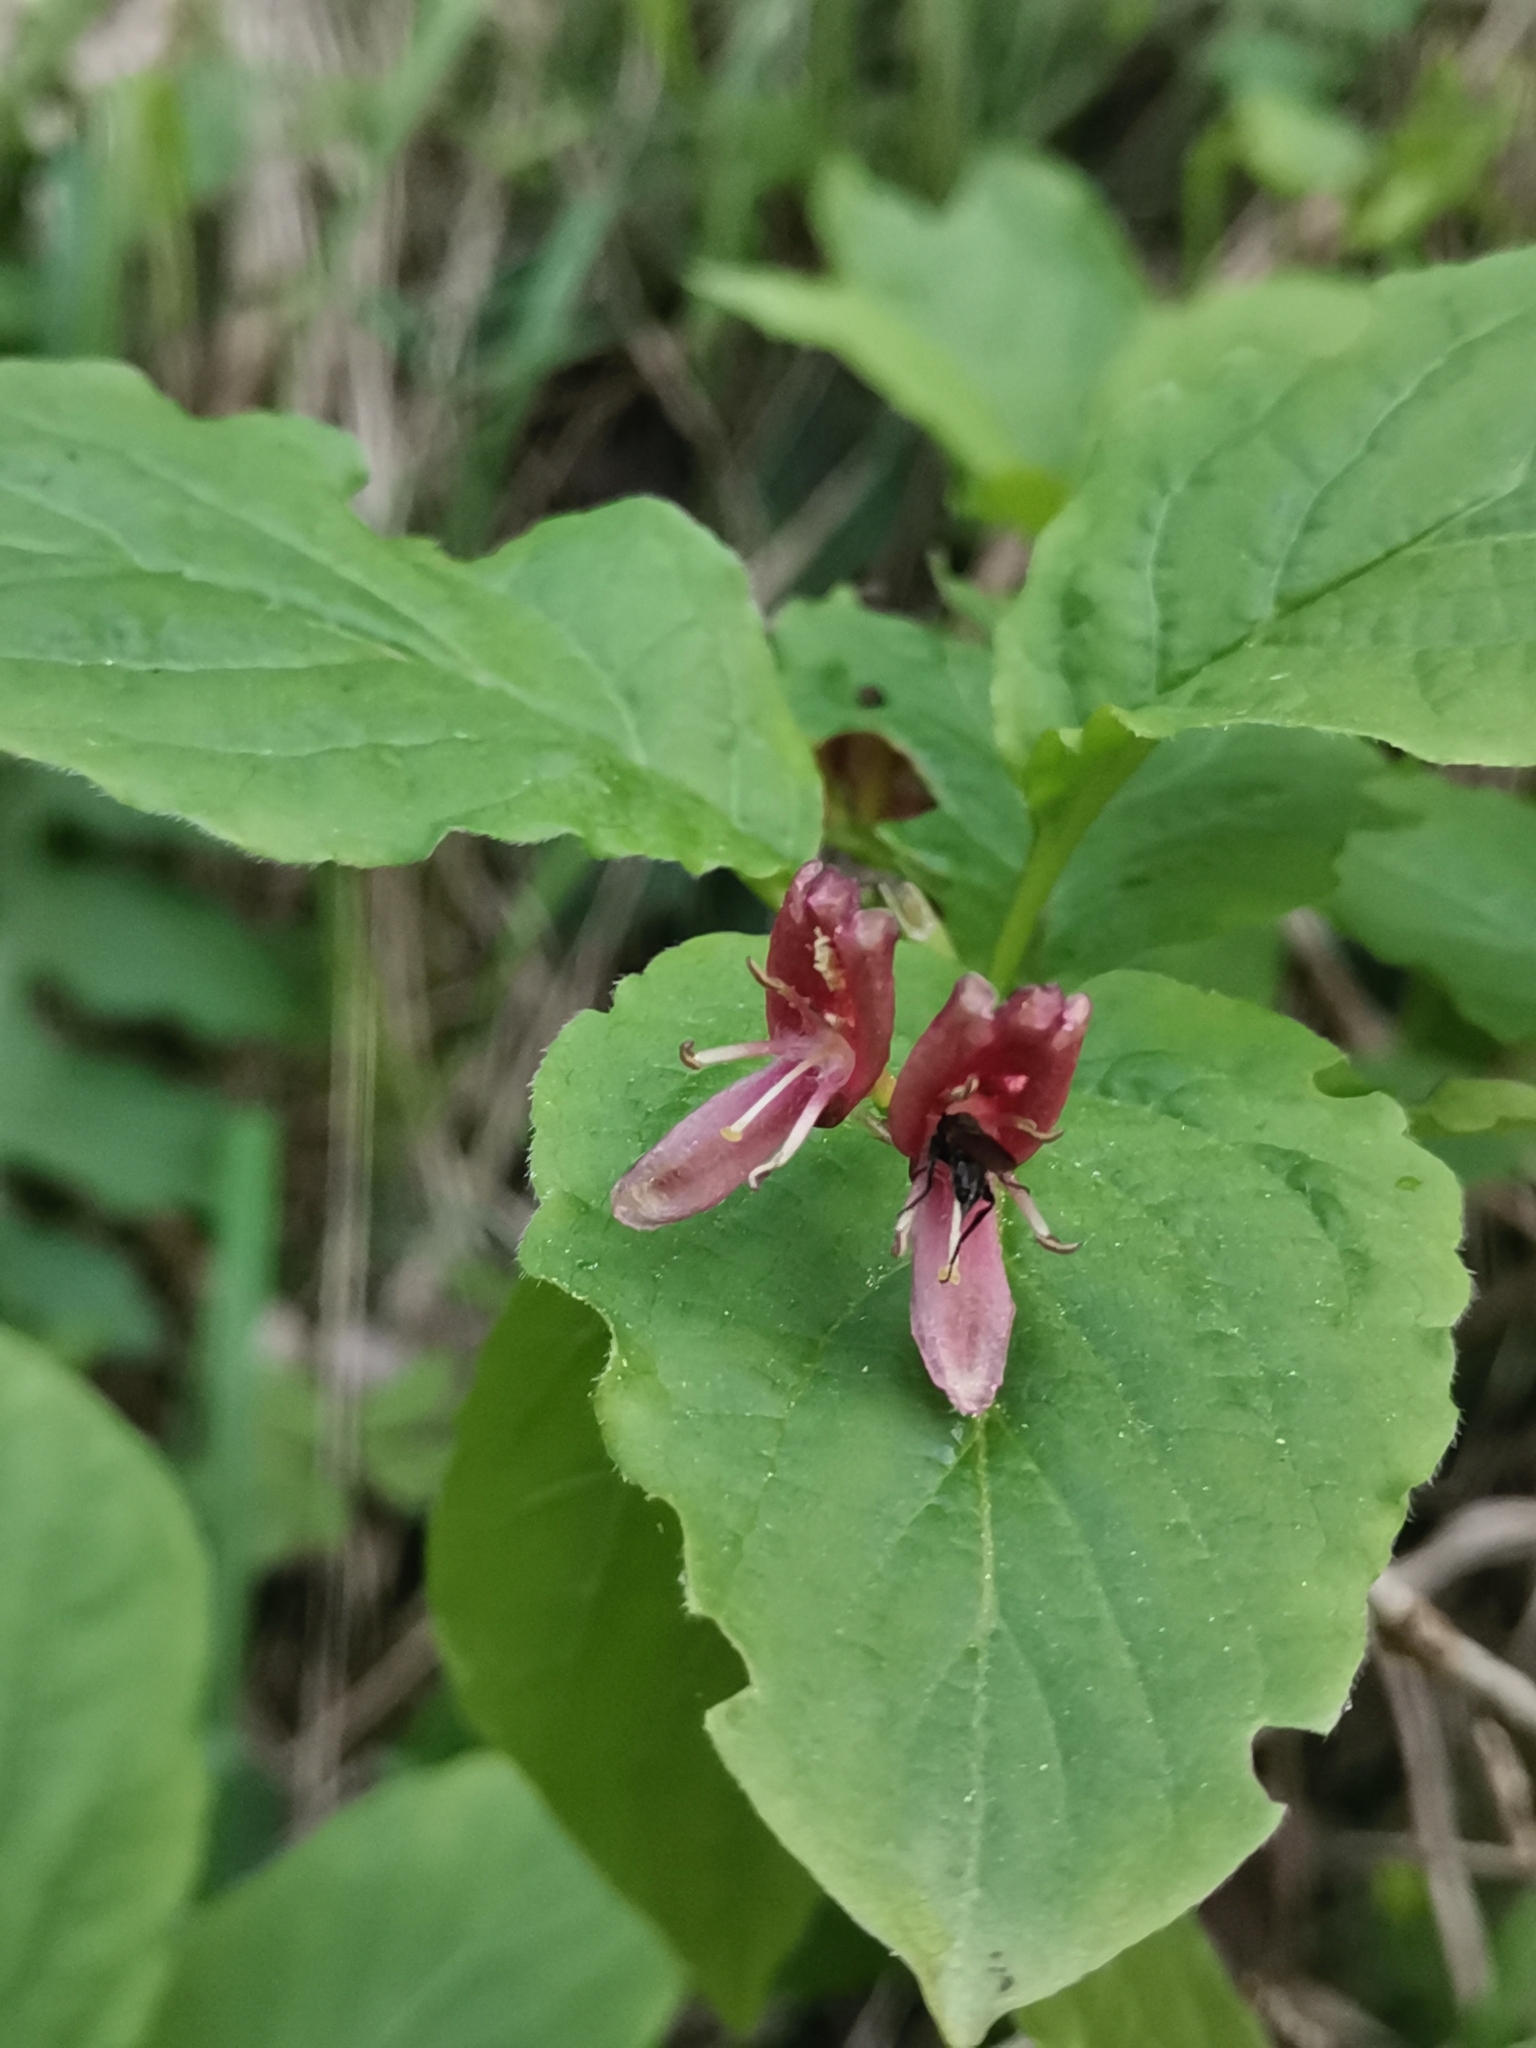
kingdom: Plantae
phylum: Tracheophyta
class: Magnoliopsida
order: Dipsacales
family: Caprifoliaceae
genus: Lonicera
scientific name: Lonicera alpigena
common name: Alpine honeysuckle
